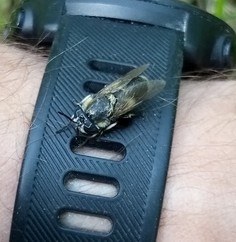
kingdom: Animalia
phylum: Arthropoda
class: Insecta
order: Diptera
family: Tabanidae
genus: Heptatoma
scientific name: Heptatoma pellucens
